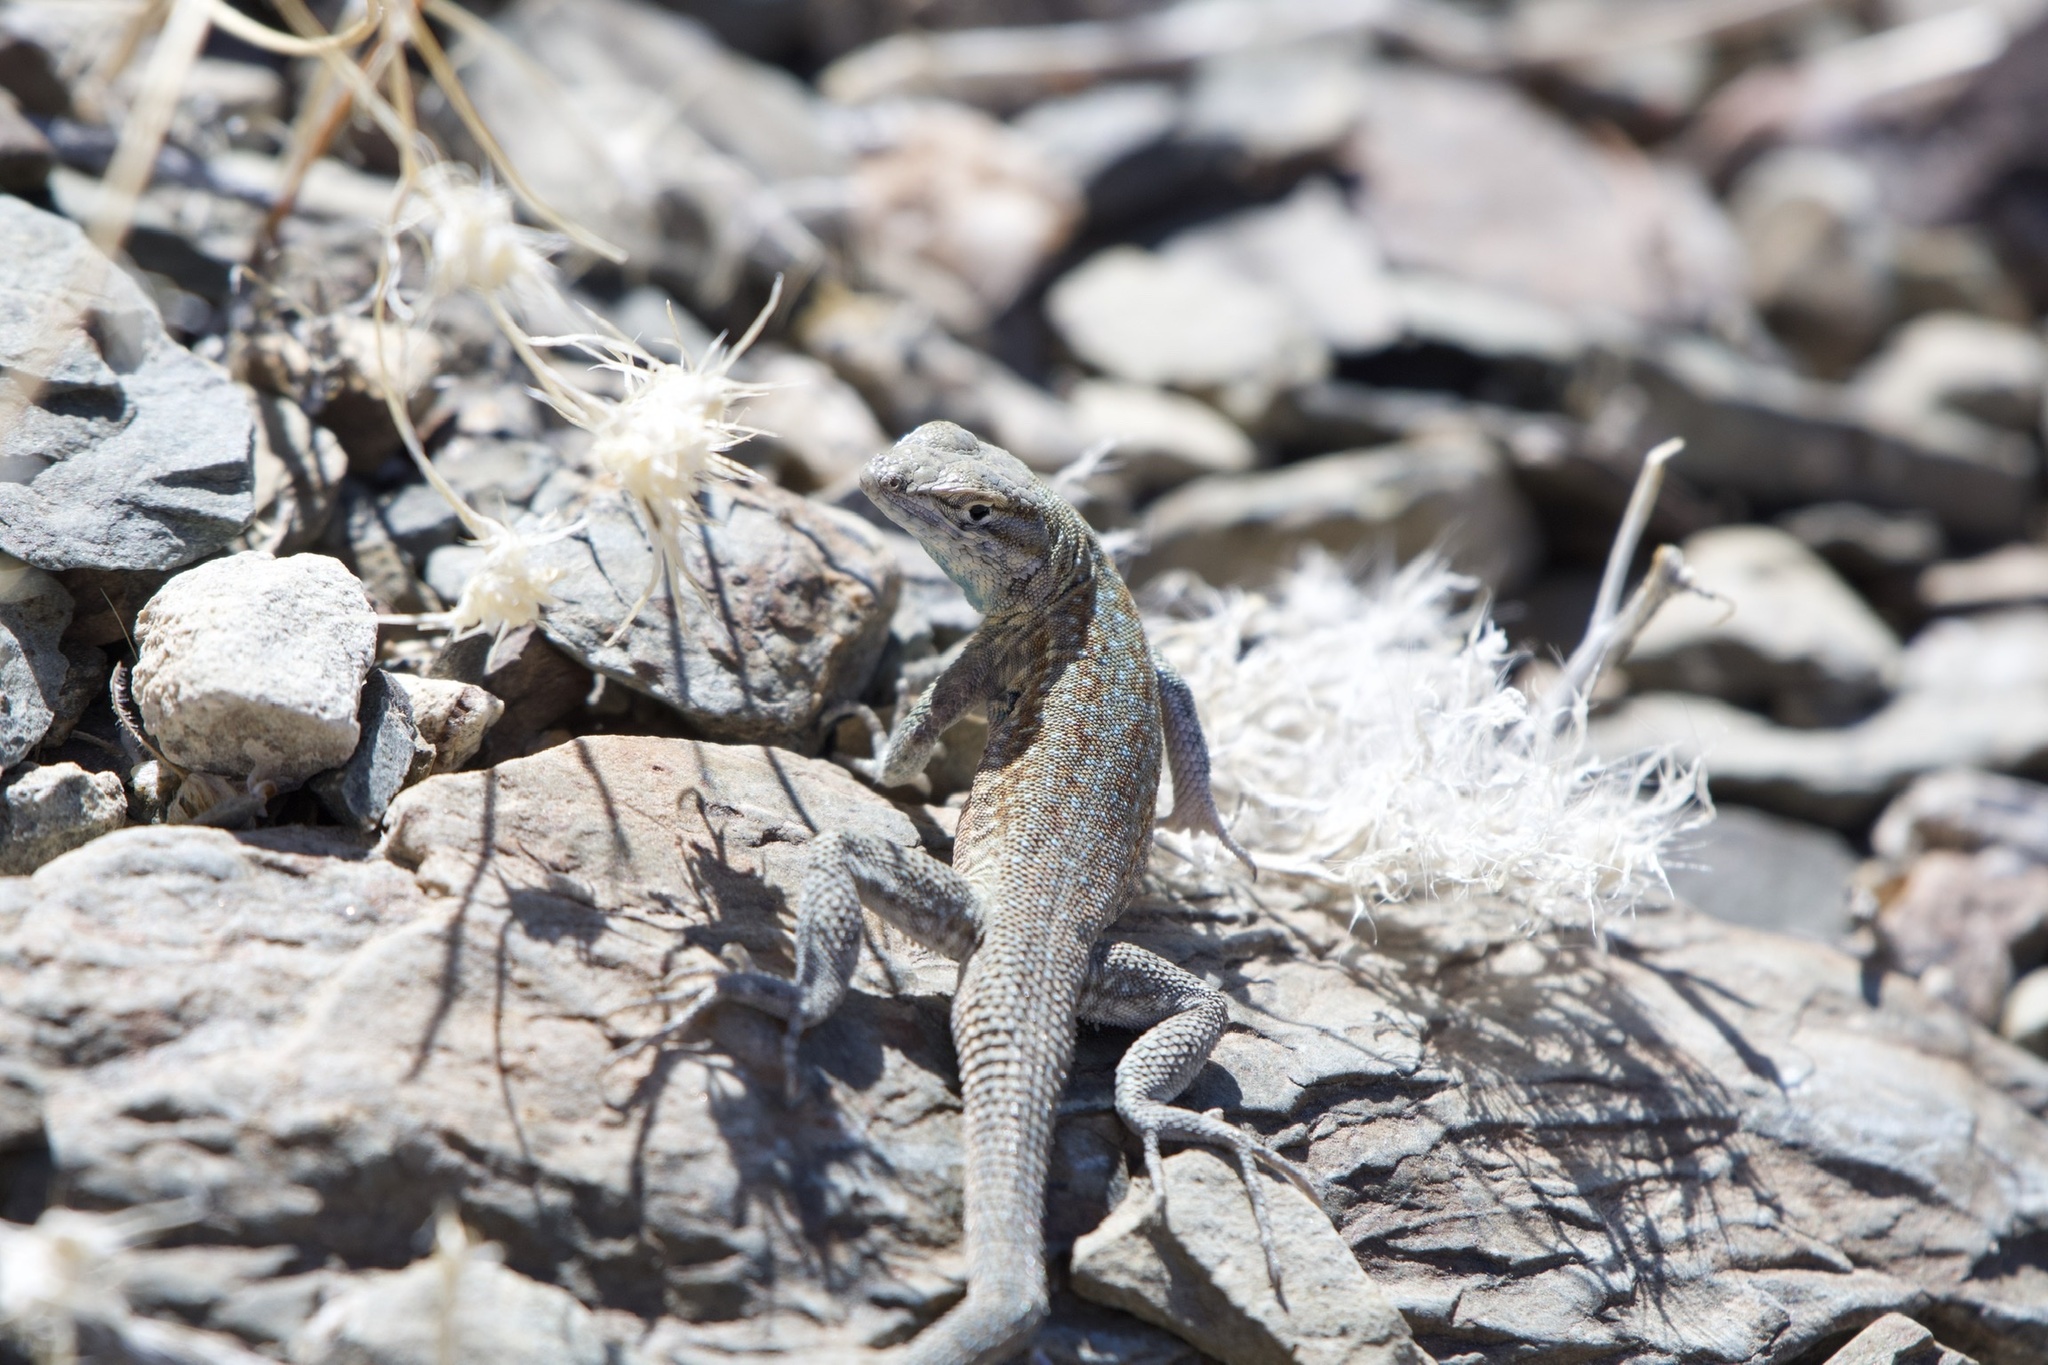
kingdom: Animalia
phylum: Chordata
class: Squamata
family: Phrynosomatidae
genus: Uta
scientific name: Uta stansburiana
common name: Side-blotched lizard
